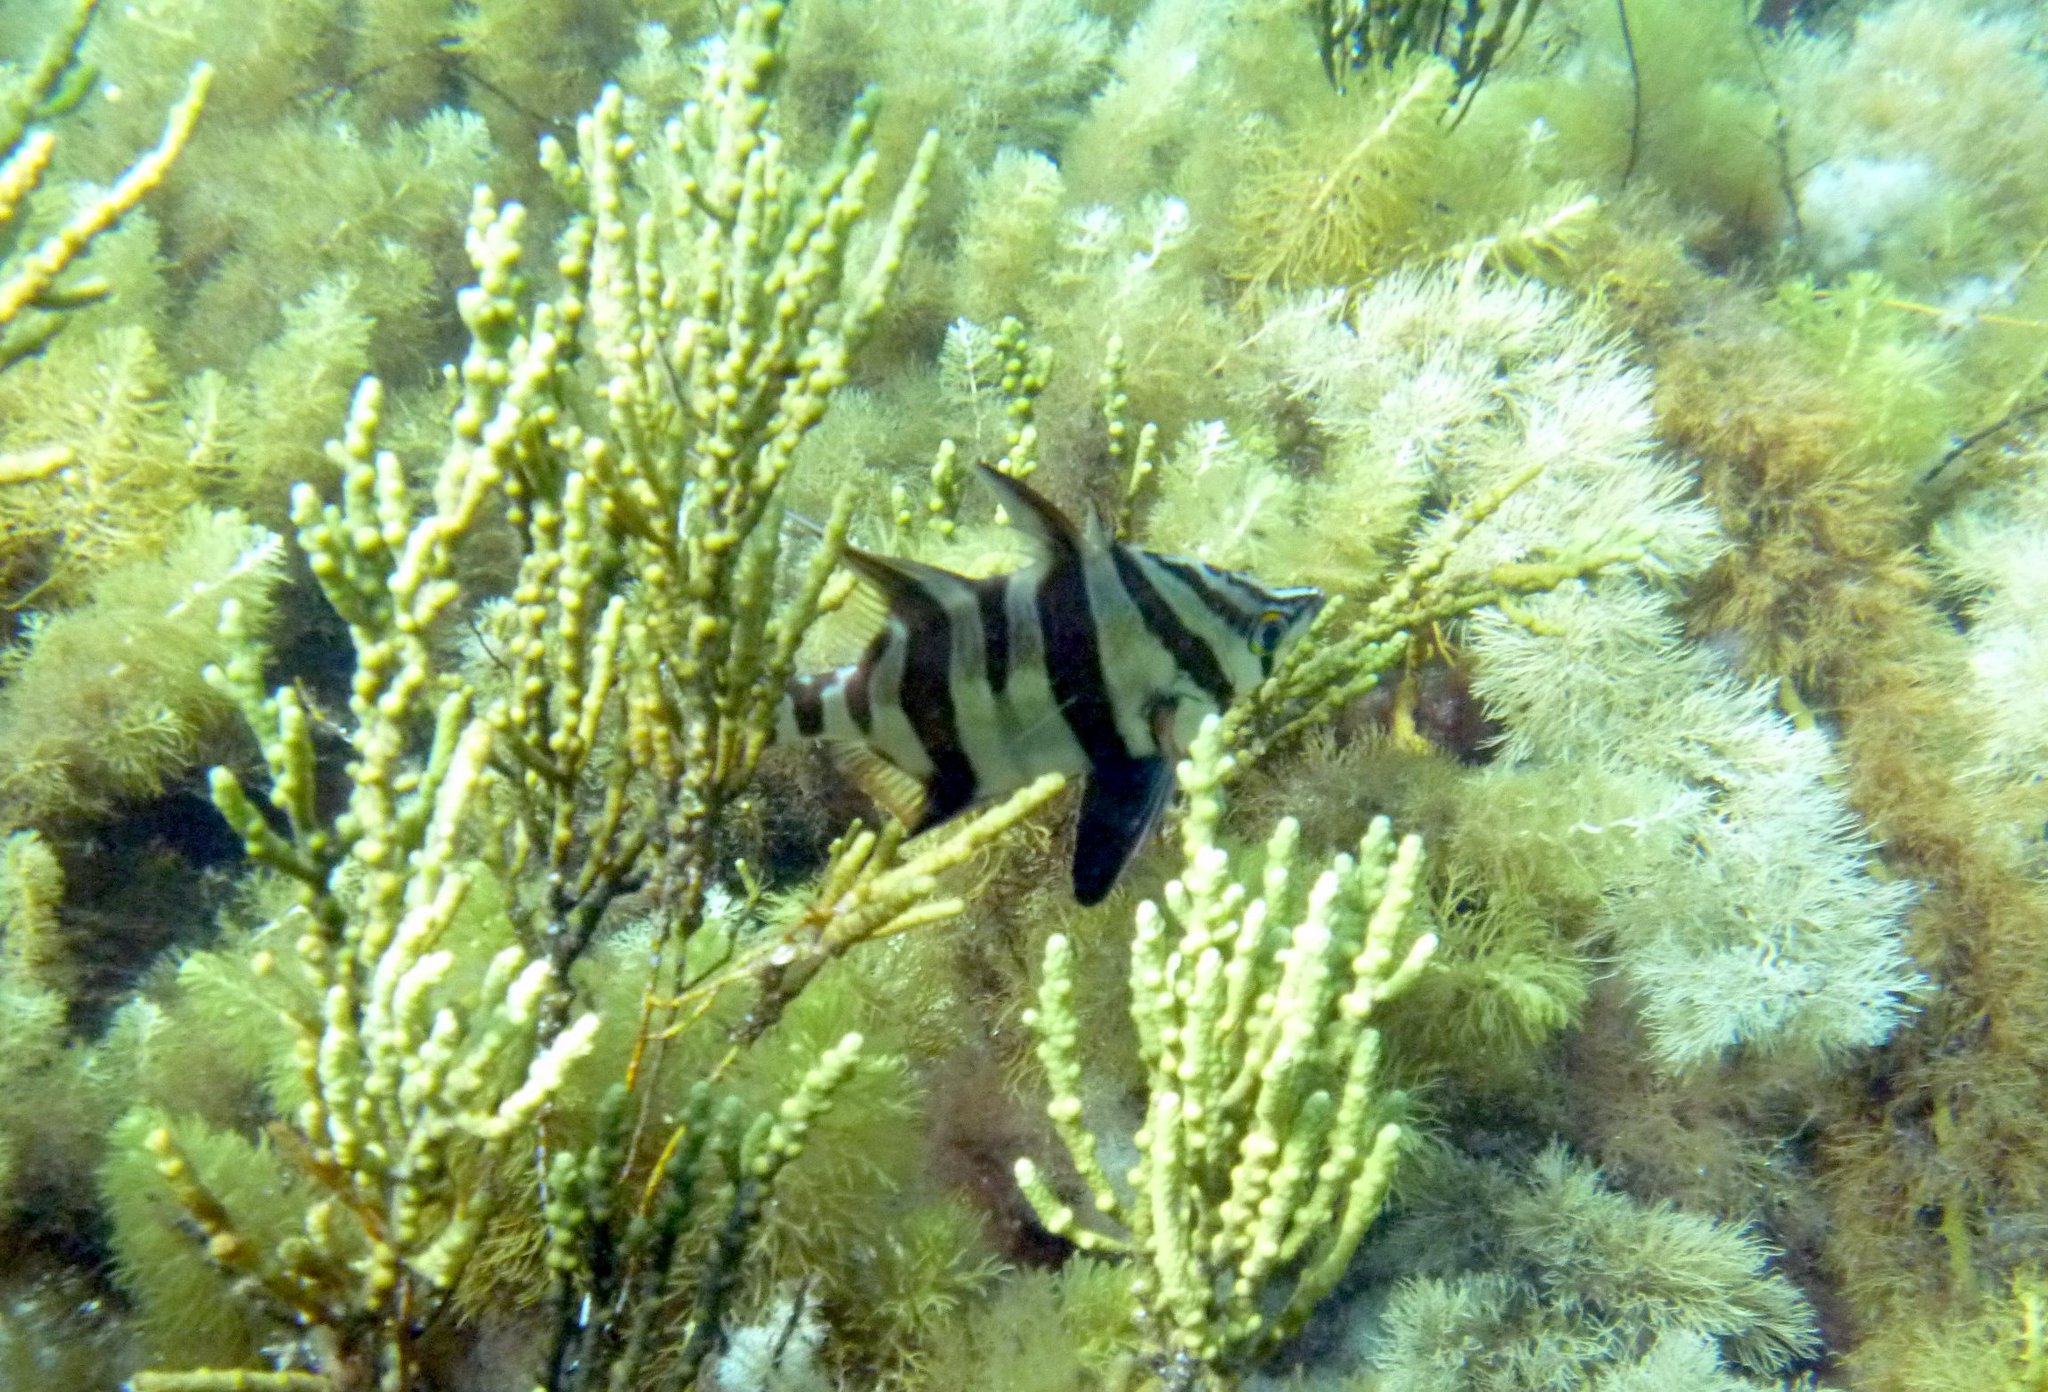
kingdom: Animalia
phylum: Chordata
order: Perciformes
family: Enoplosidae
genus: Enoplosus
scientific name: Enoplosus armatus
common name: Old wife
